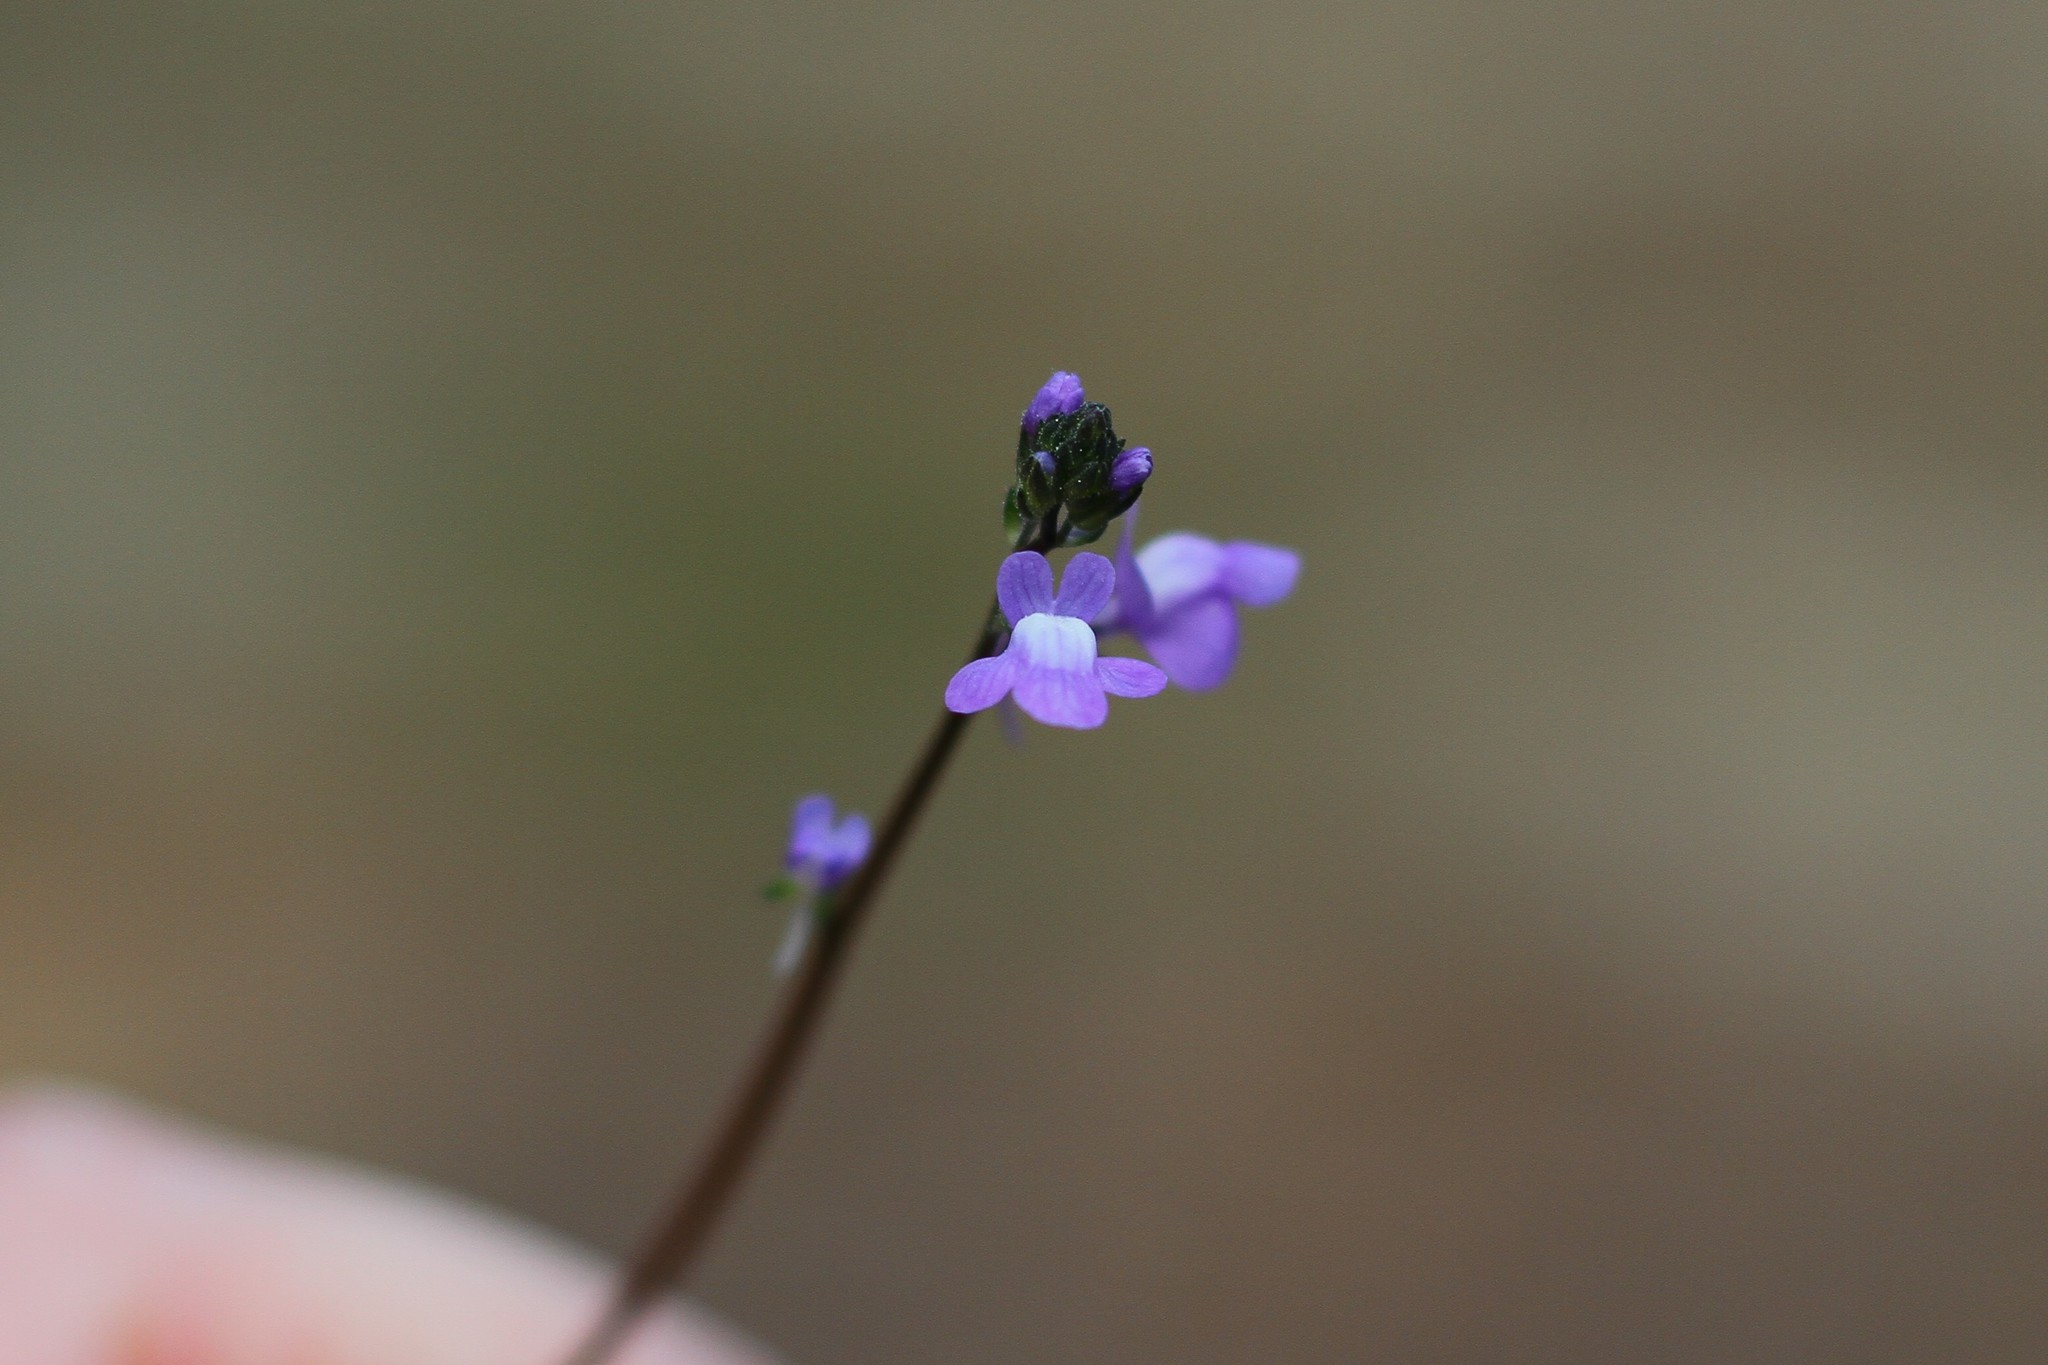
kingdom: Plantae
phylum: Tracheophyta
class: Magnoliopsida
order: Lamiales
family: Plantaginaceae
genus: Nuttallanthus
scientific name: Nuttallanthus canadensis
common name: Blue toadflax
